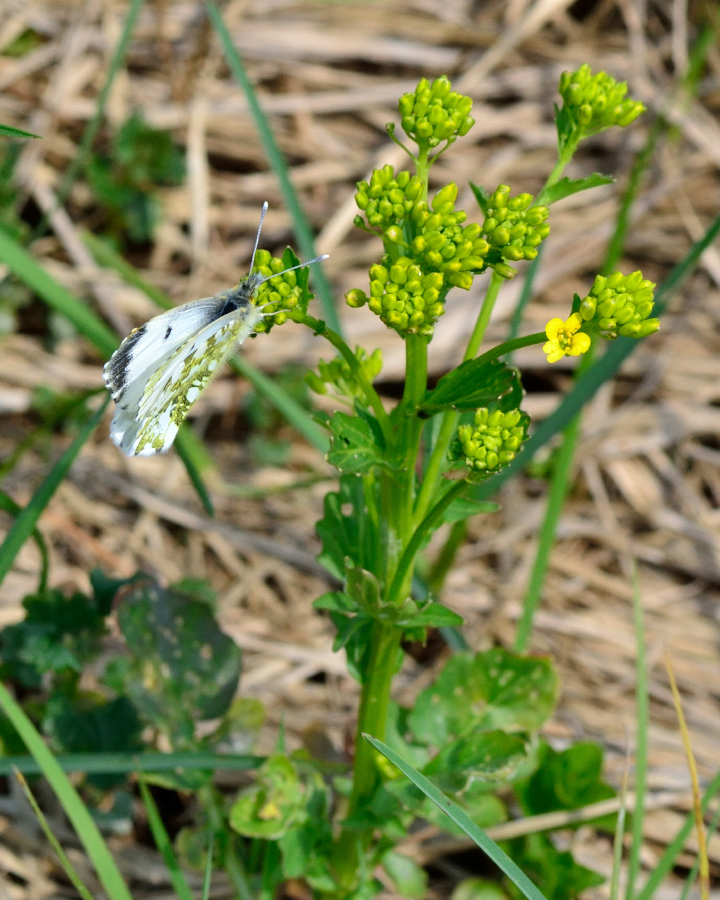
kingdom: Animalia
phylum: Arthropoda
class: Insecta
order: Lepidoptera
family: Pieridae
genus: Anthocharis
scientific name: Anthocharis cardamines
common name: Orange-tip
